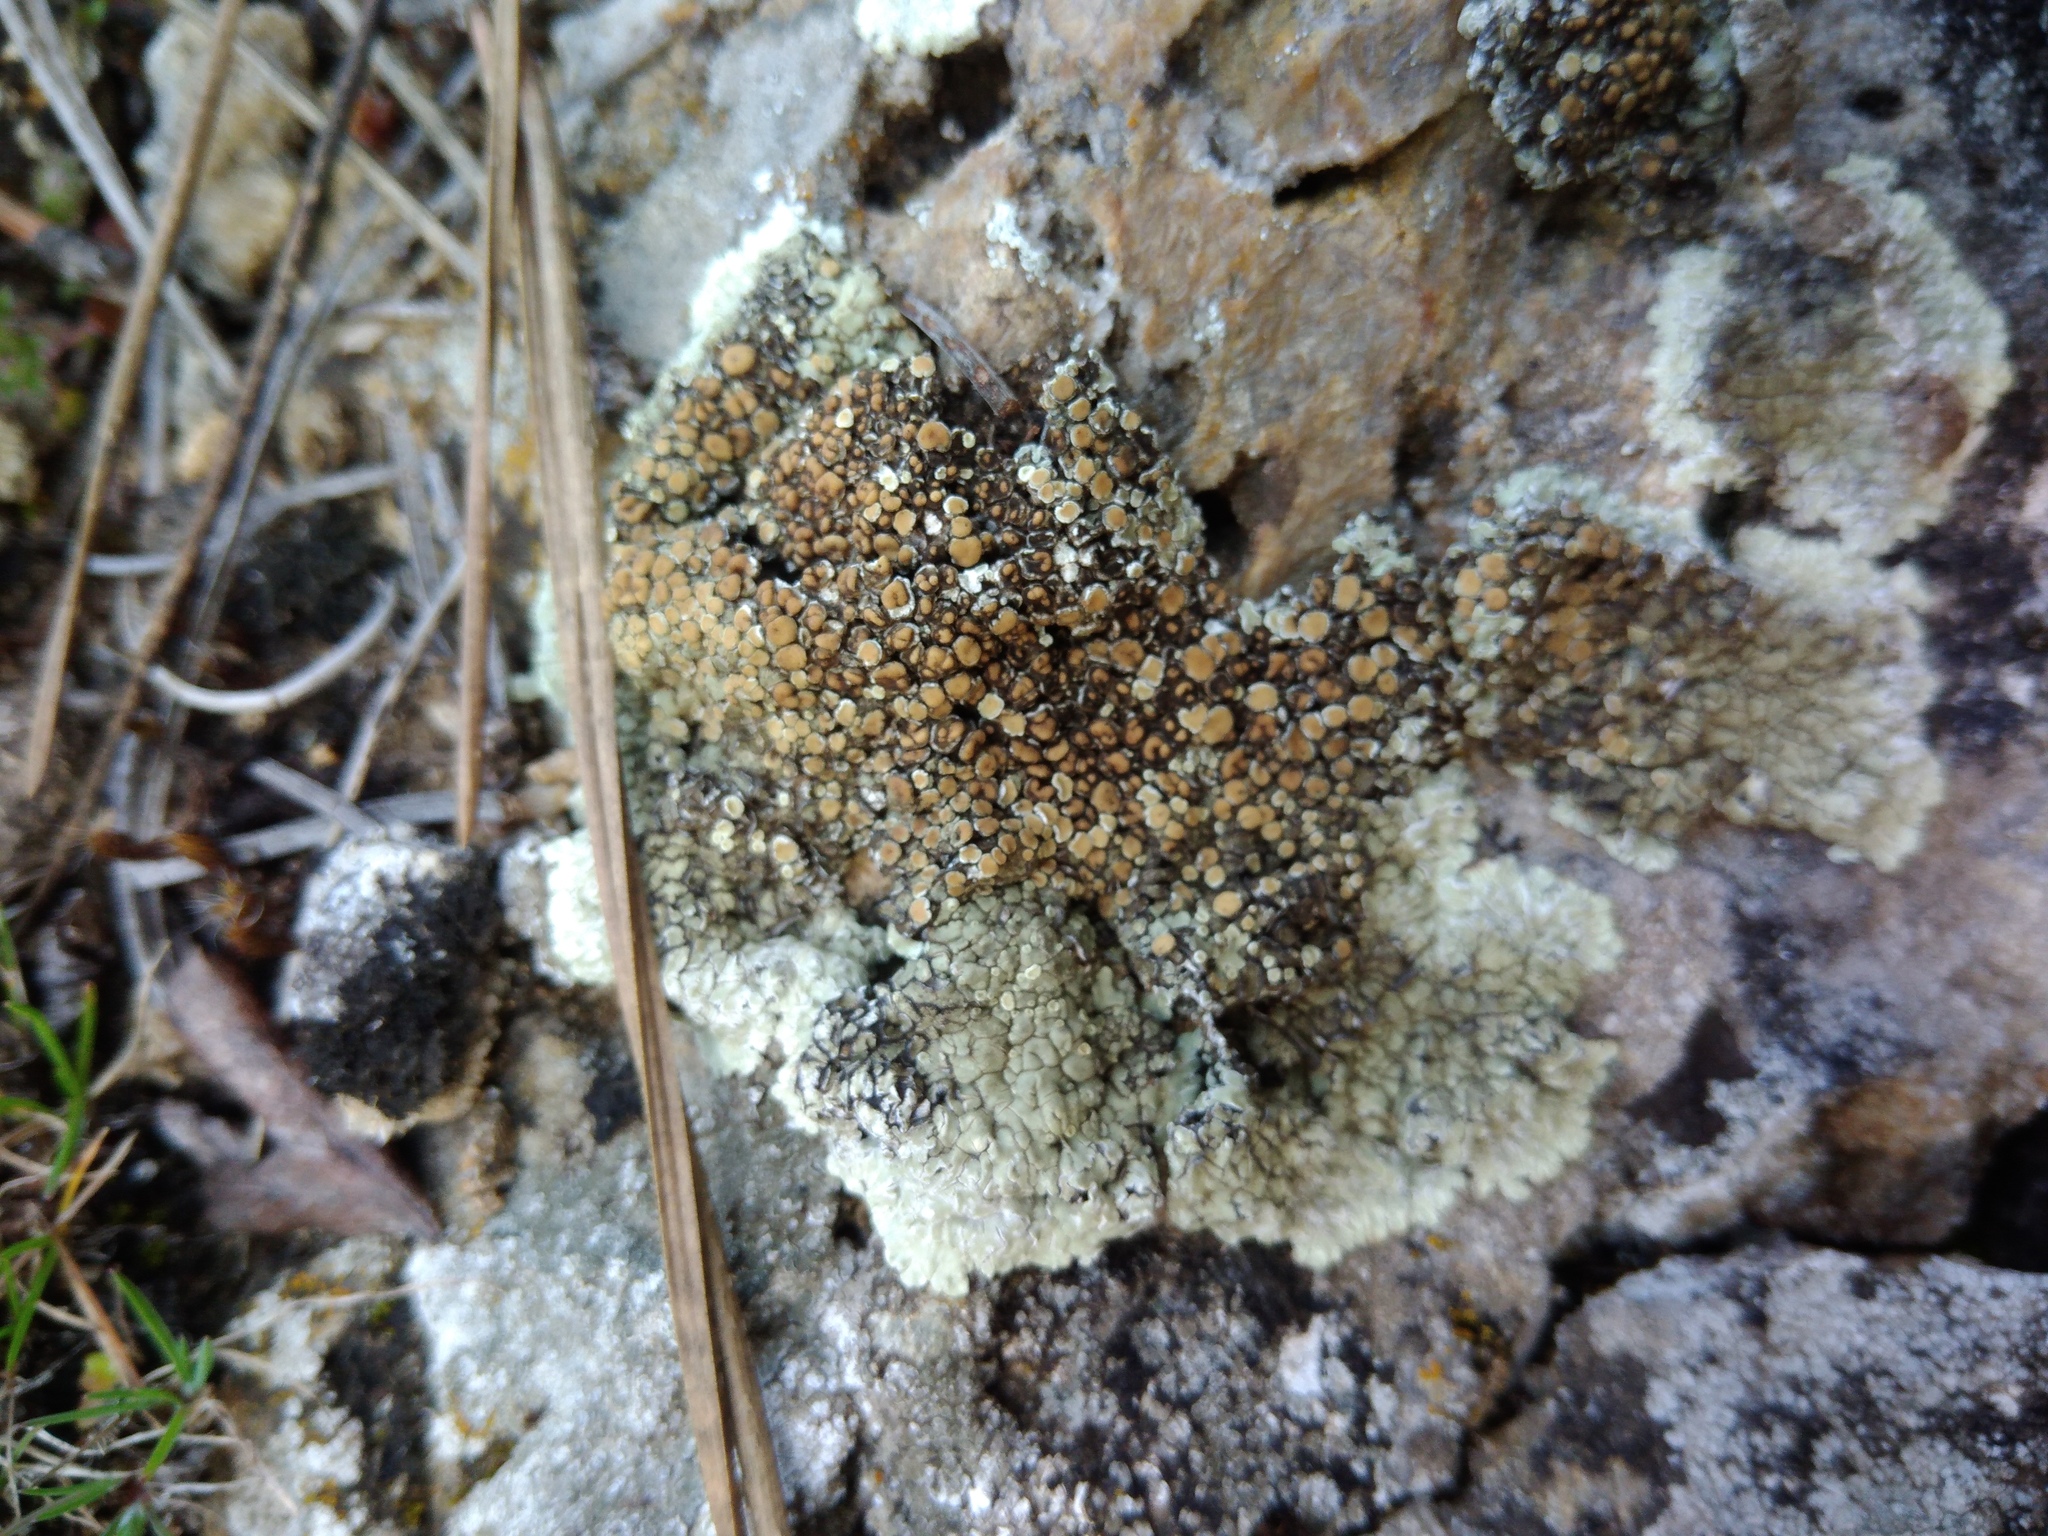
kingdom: Fungi
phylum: Ascomycota
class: Lecanoromycetes
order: Lecanorales
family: Lecanoraceae
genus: Protoparmeliopsis
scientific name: Protoparmeliopsis muralis
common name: Stonewall rim lichen
